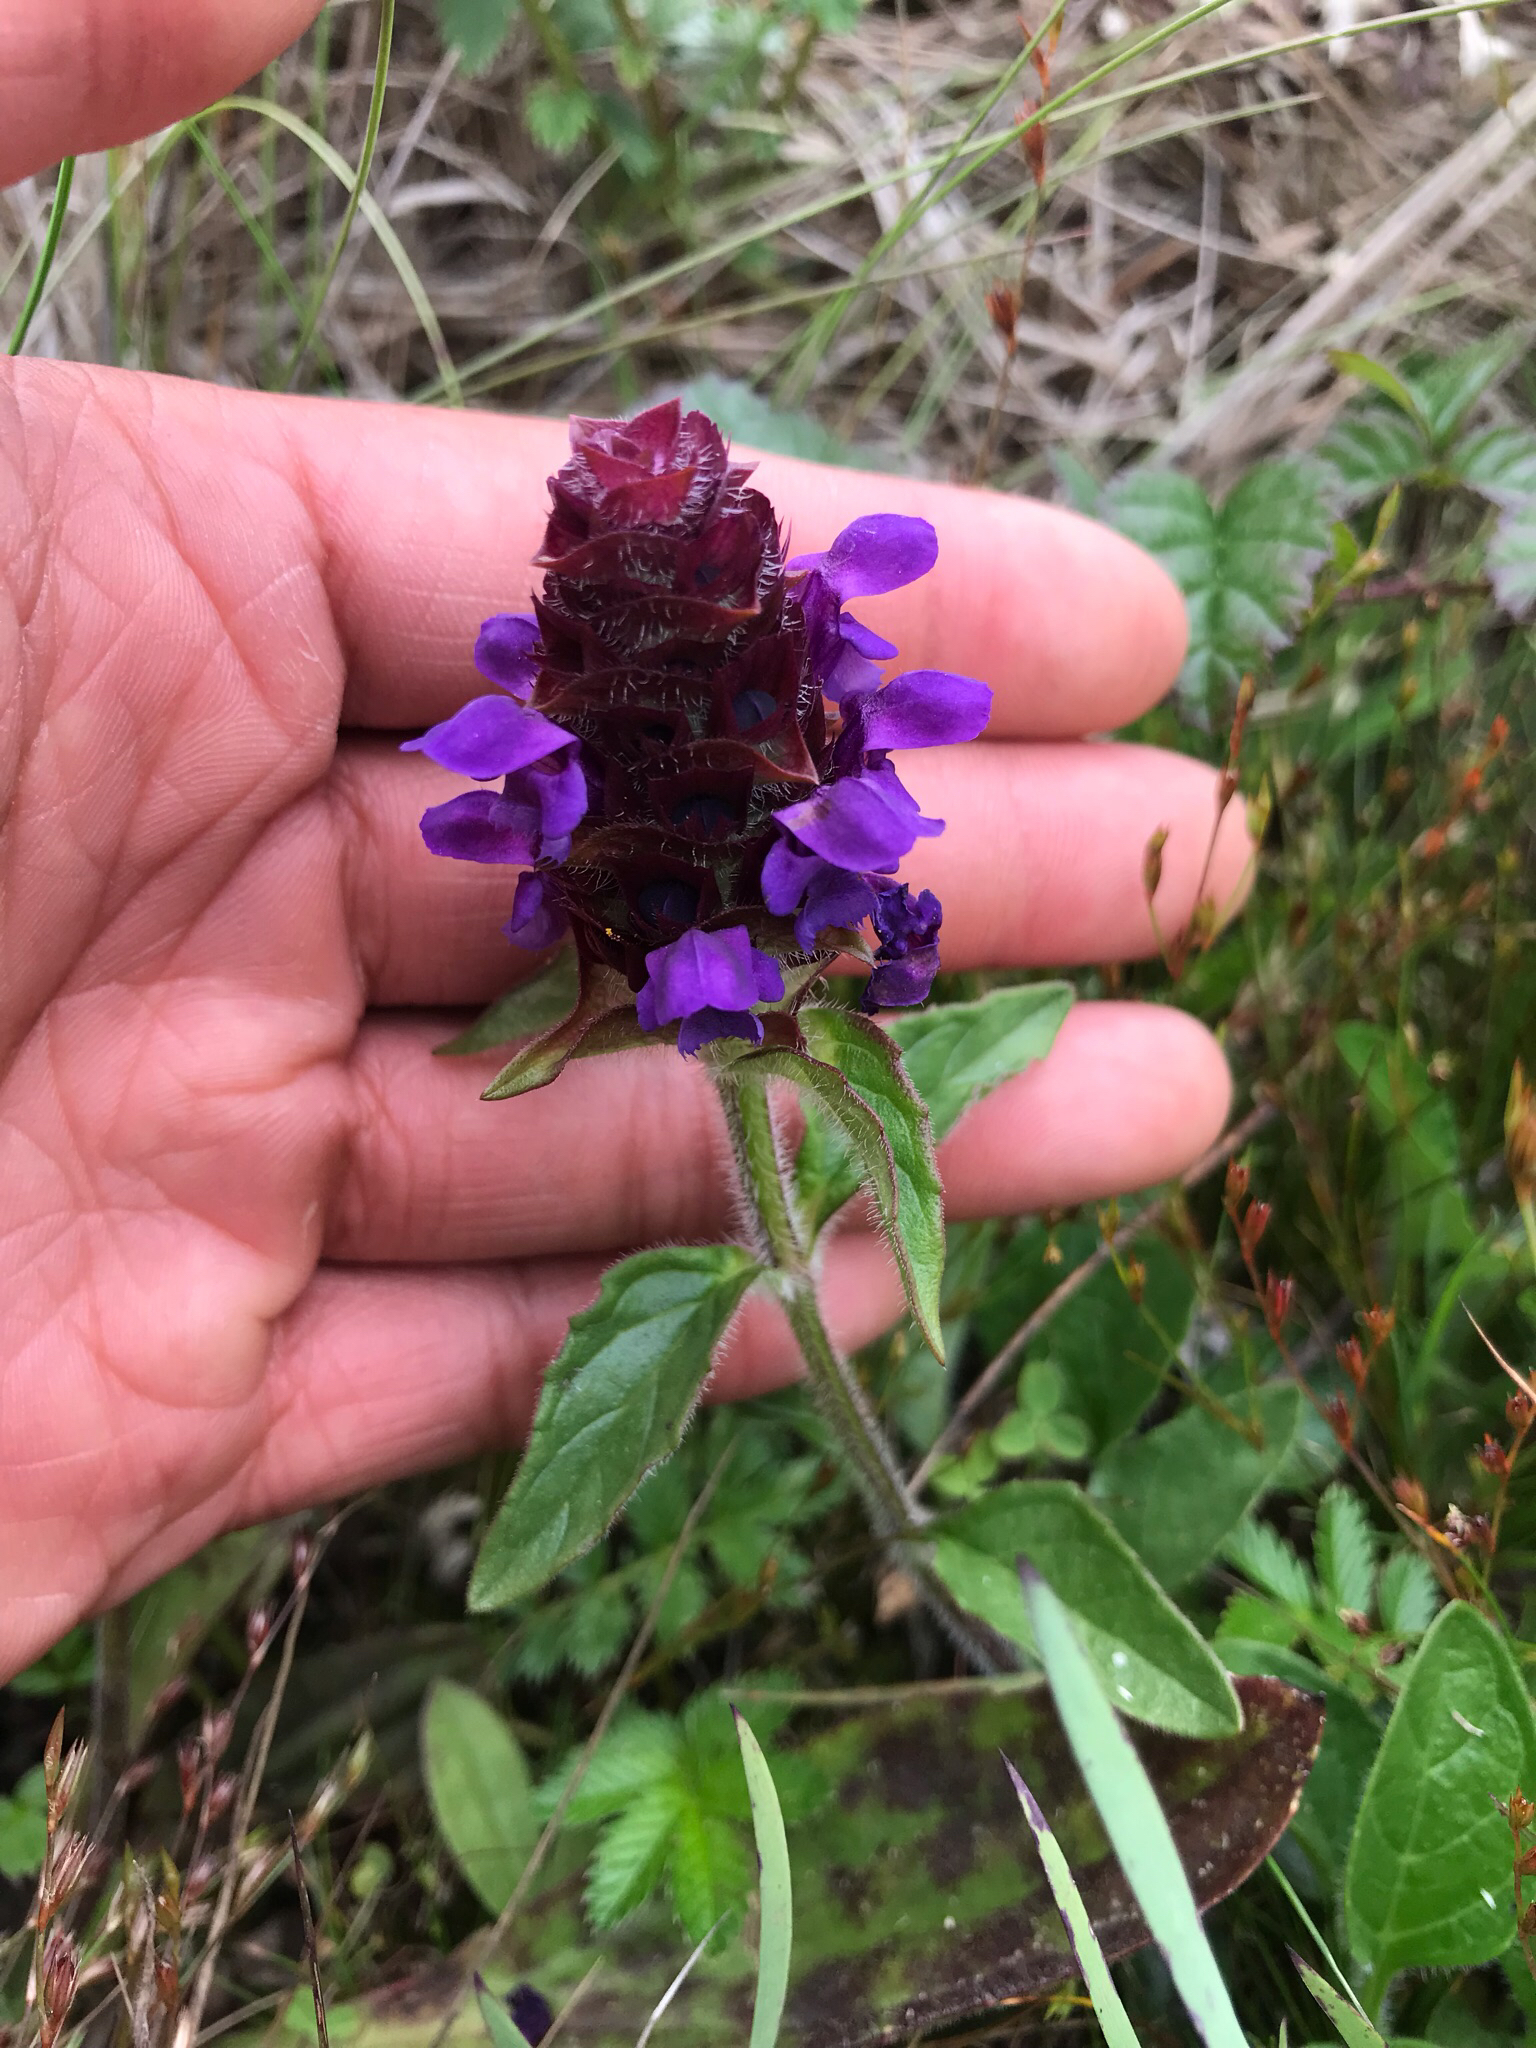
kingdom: Plantae
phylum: Tracheophyta
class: Magnoliopsida
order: Lamiales
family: Lamiaceae
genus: Prunella
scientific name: Prunella vulgaris
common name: Heal-all
